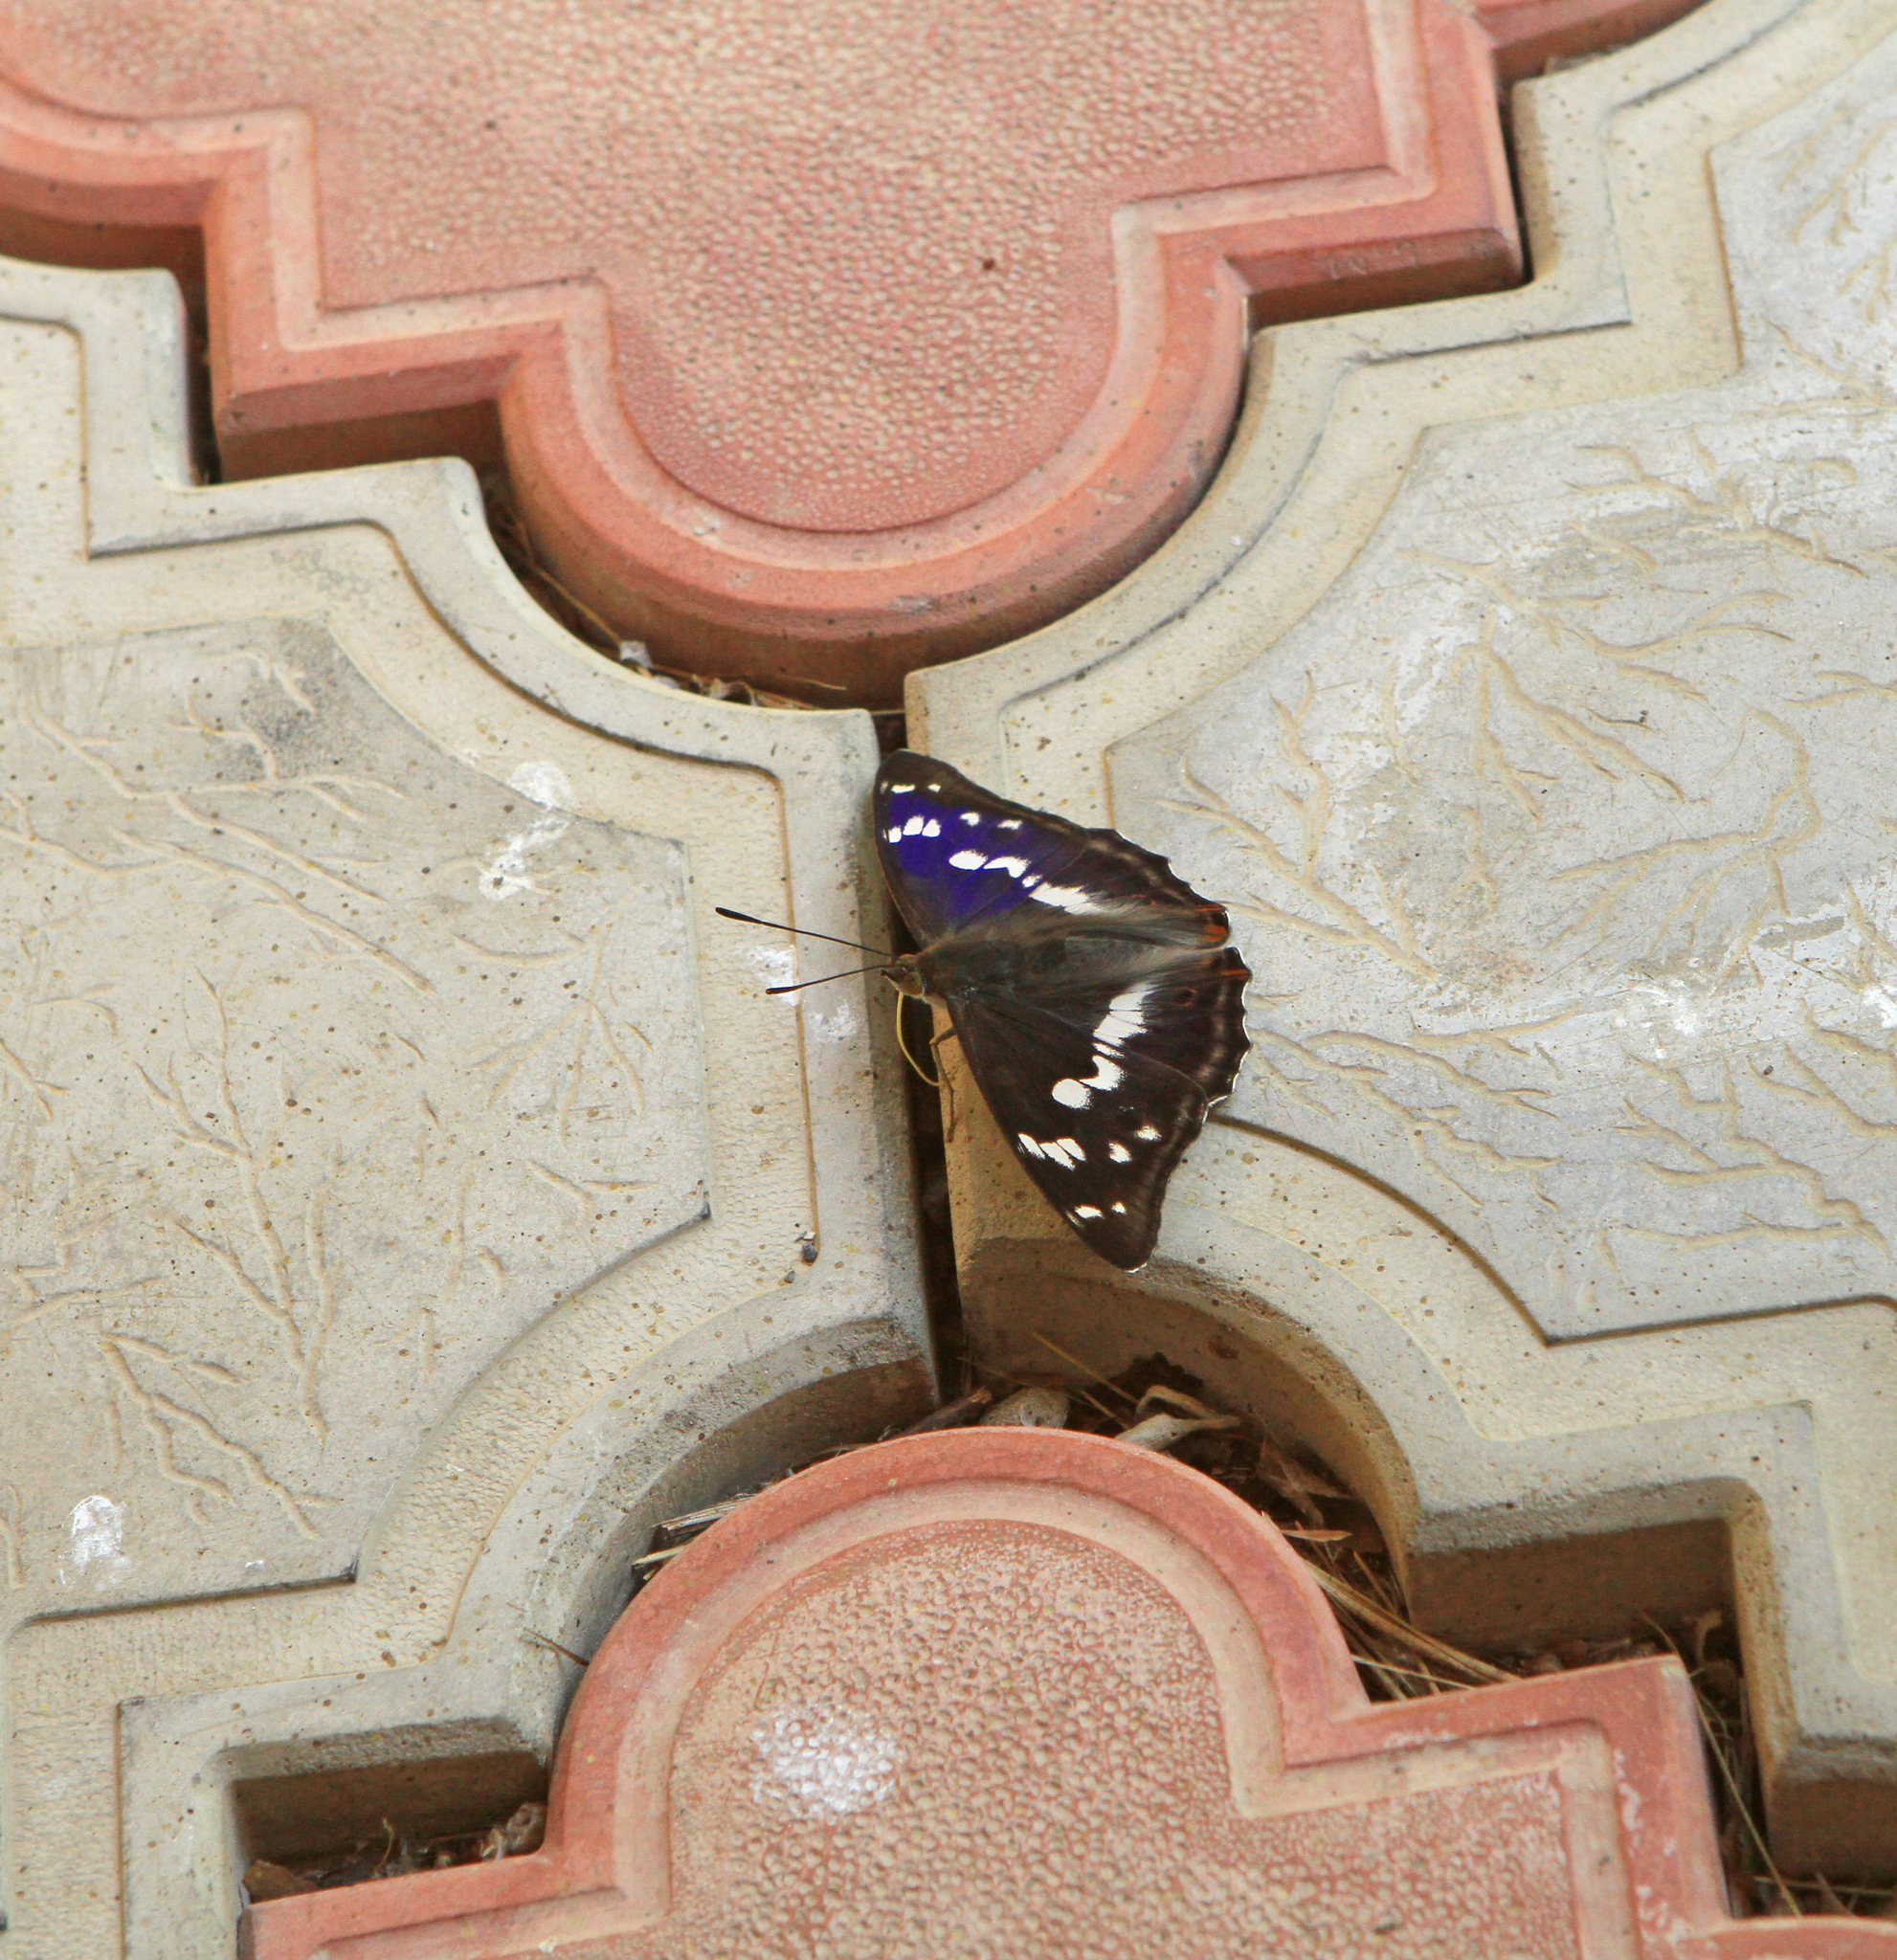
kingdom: Animalia
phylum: Arthropoda
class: Insecta
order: Lepidoptera
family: Nymphalidae
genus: Apatura
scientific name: Apatura iris
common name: Purple emperor
